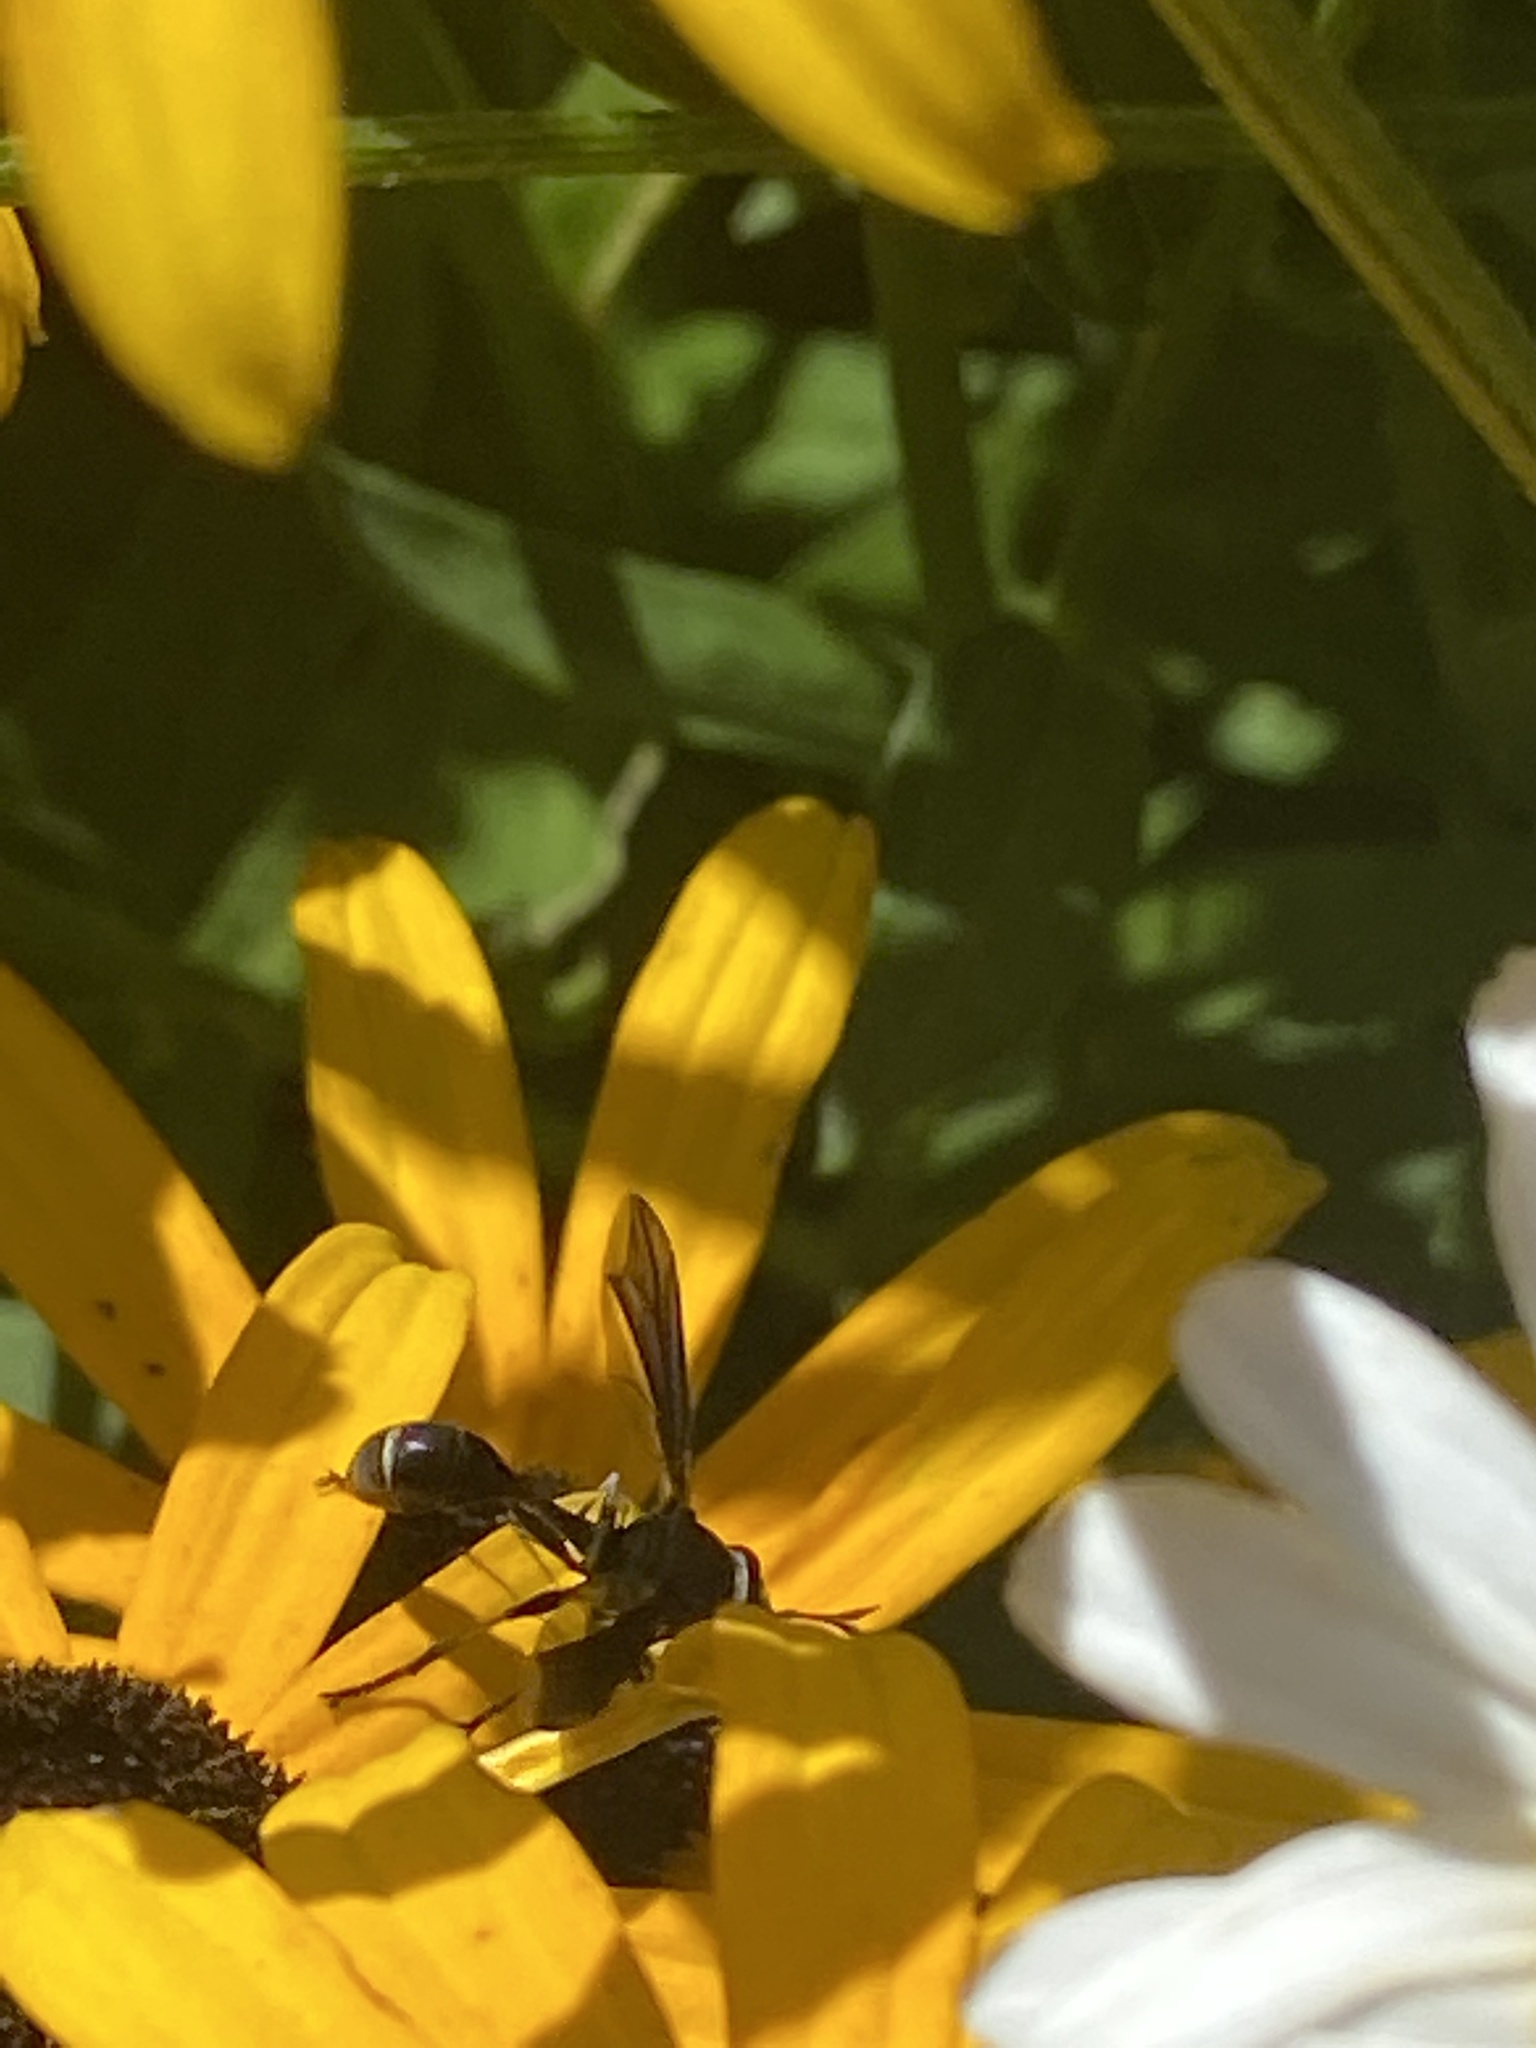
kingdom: Animalia
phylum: Arthropoda
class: Insecta
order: Diptera
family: Conopidae
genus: Physocephala
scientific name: Physocephala tibialis
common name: Common eastern physocephala
